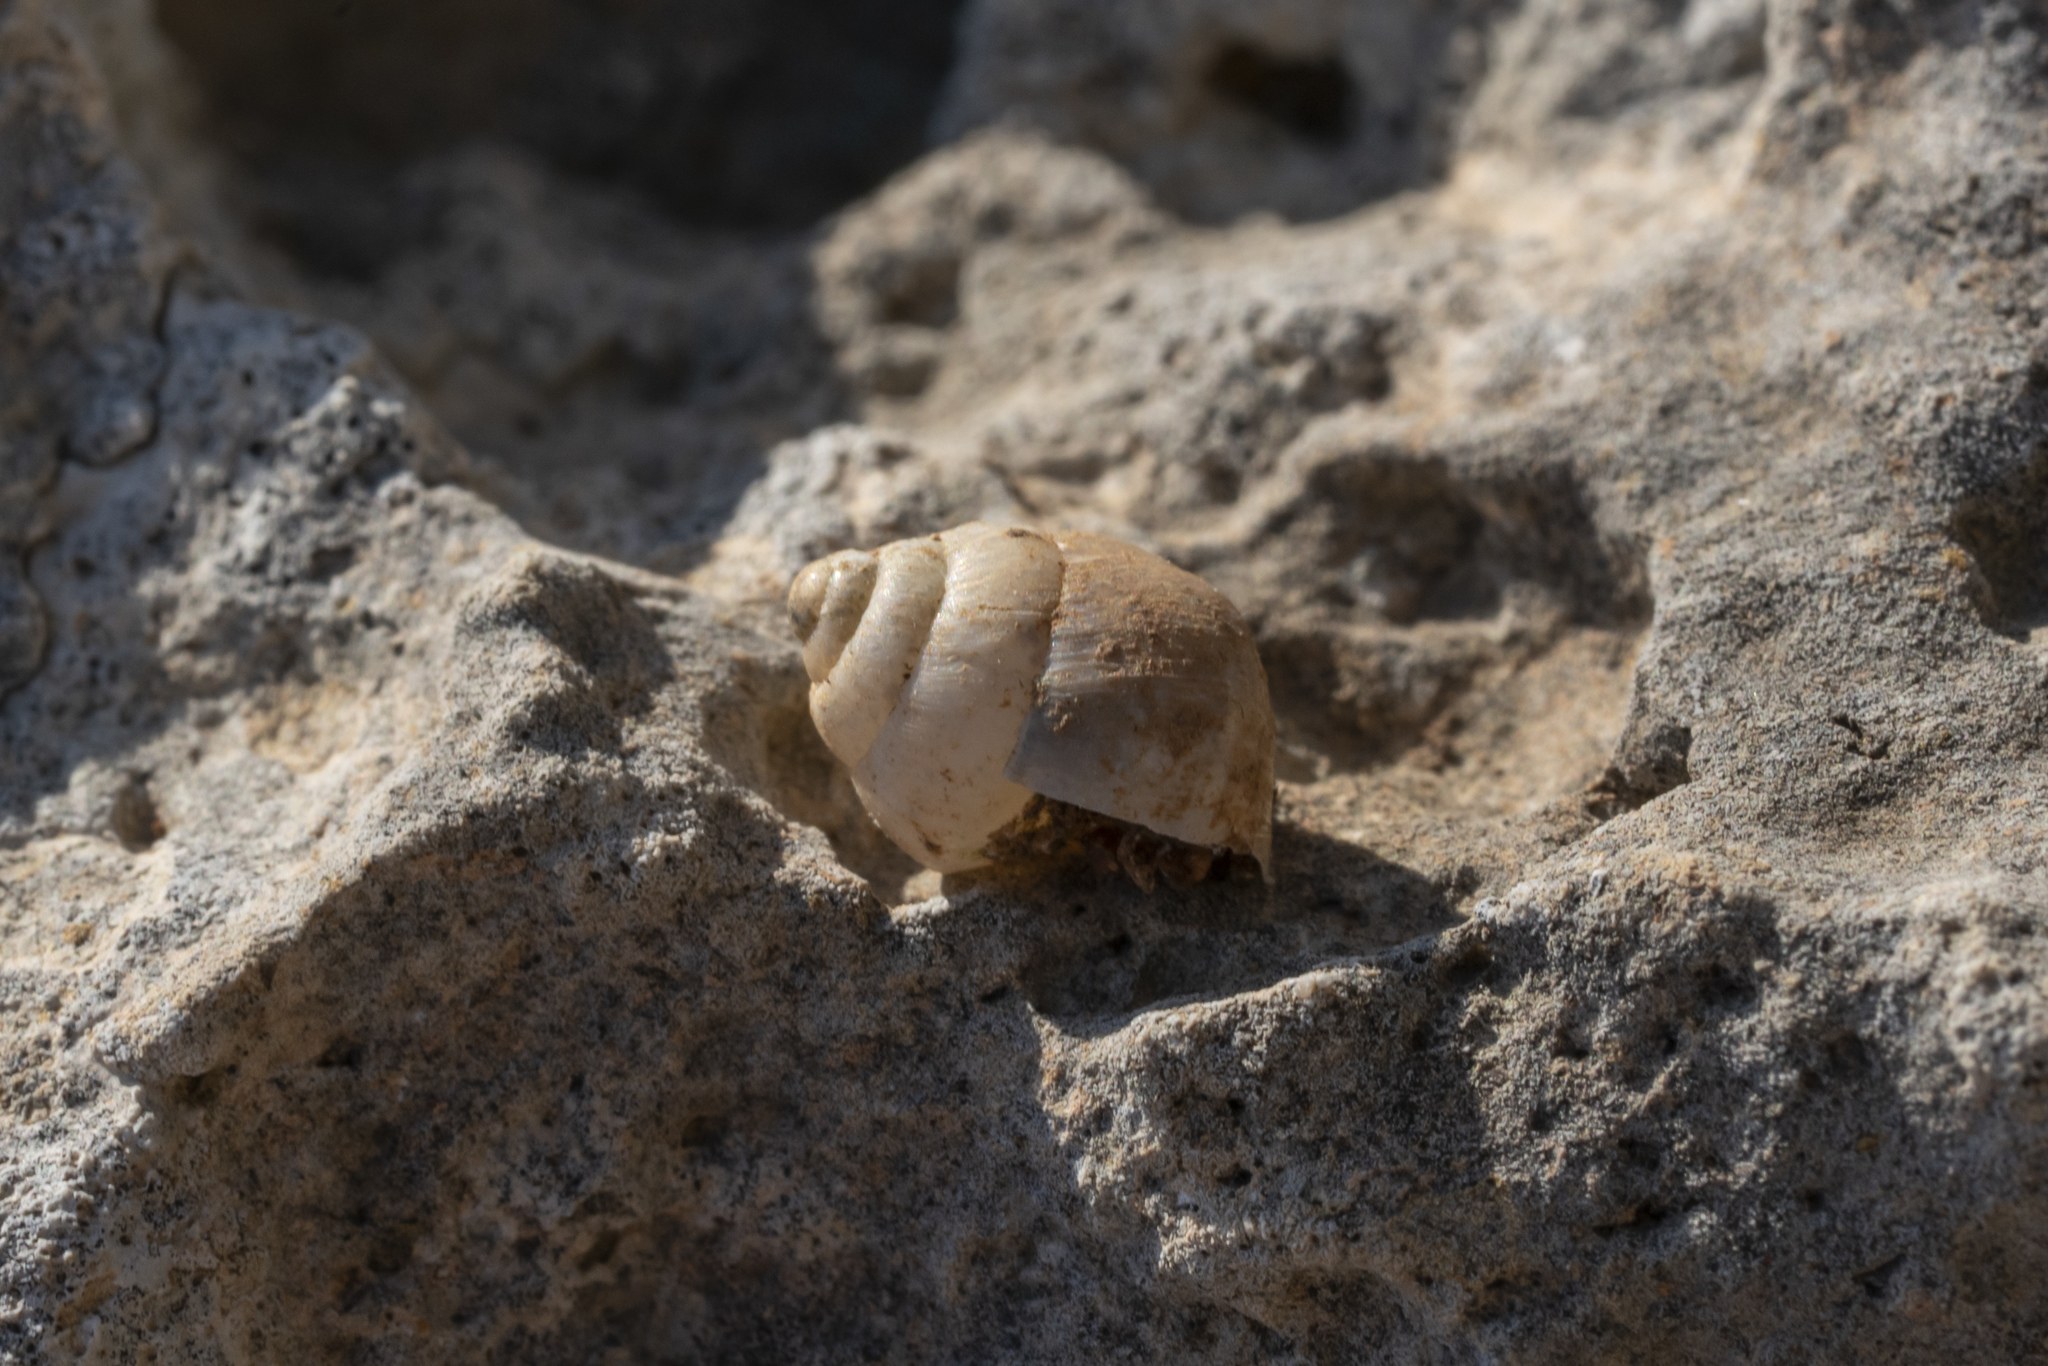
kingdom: Animalia
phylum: Mollusca
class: Gastropoda
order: Stylommatophora
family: Enidae
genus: Mastus
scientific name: Mastus turgidus
